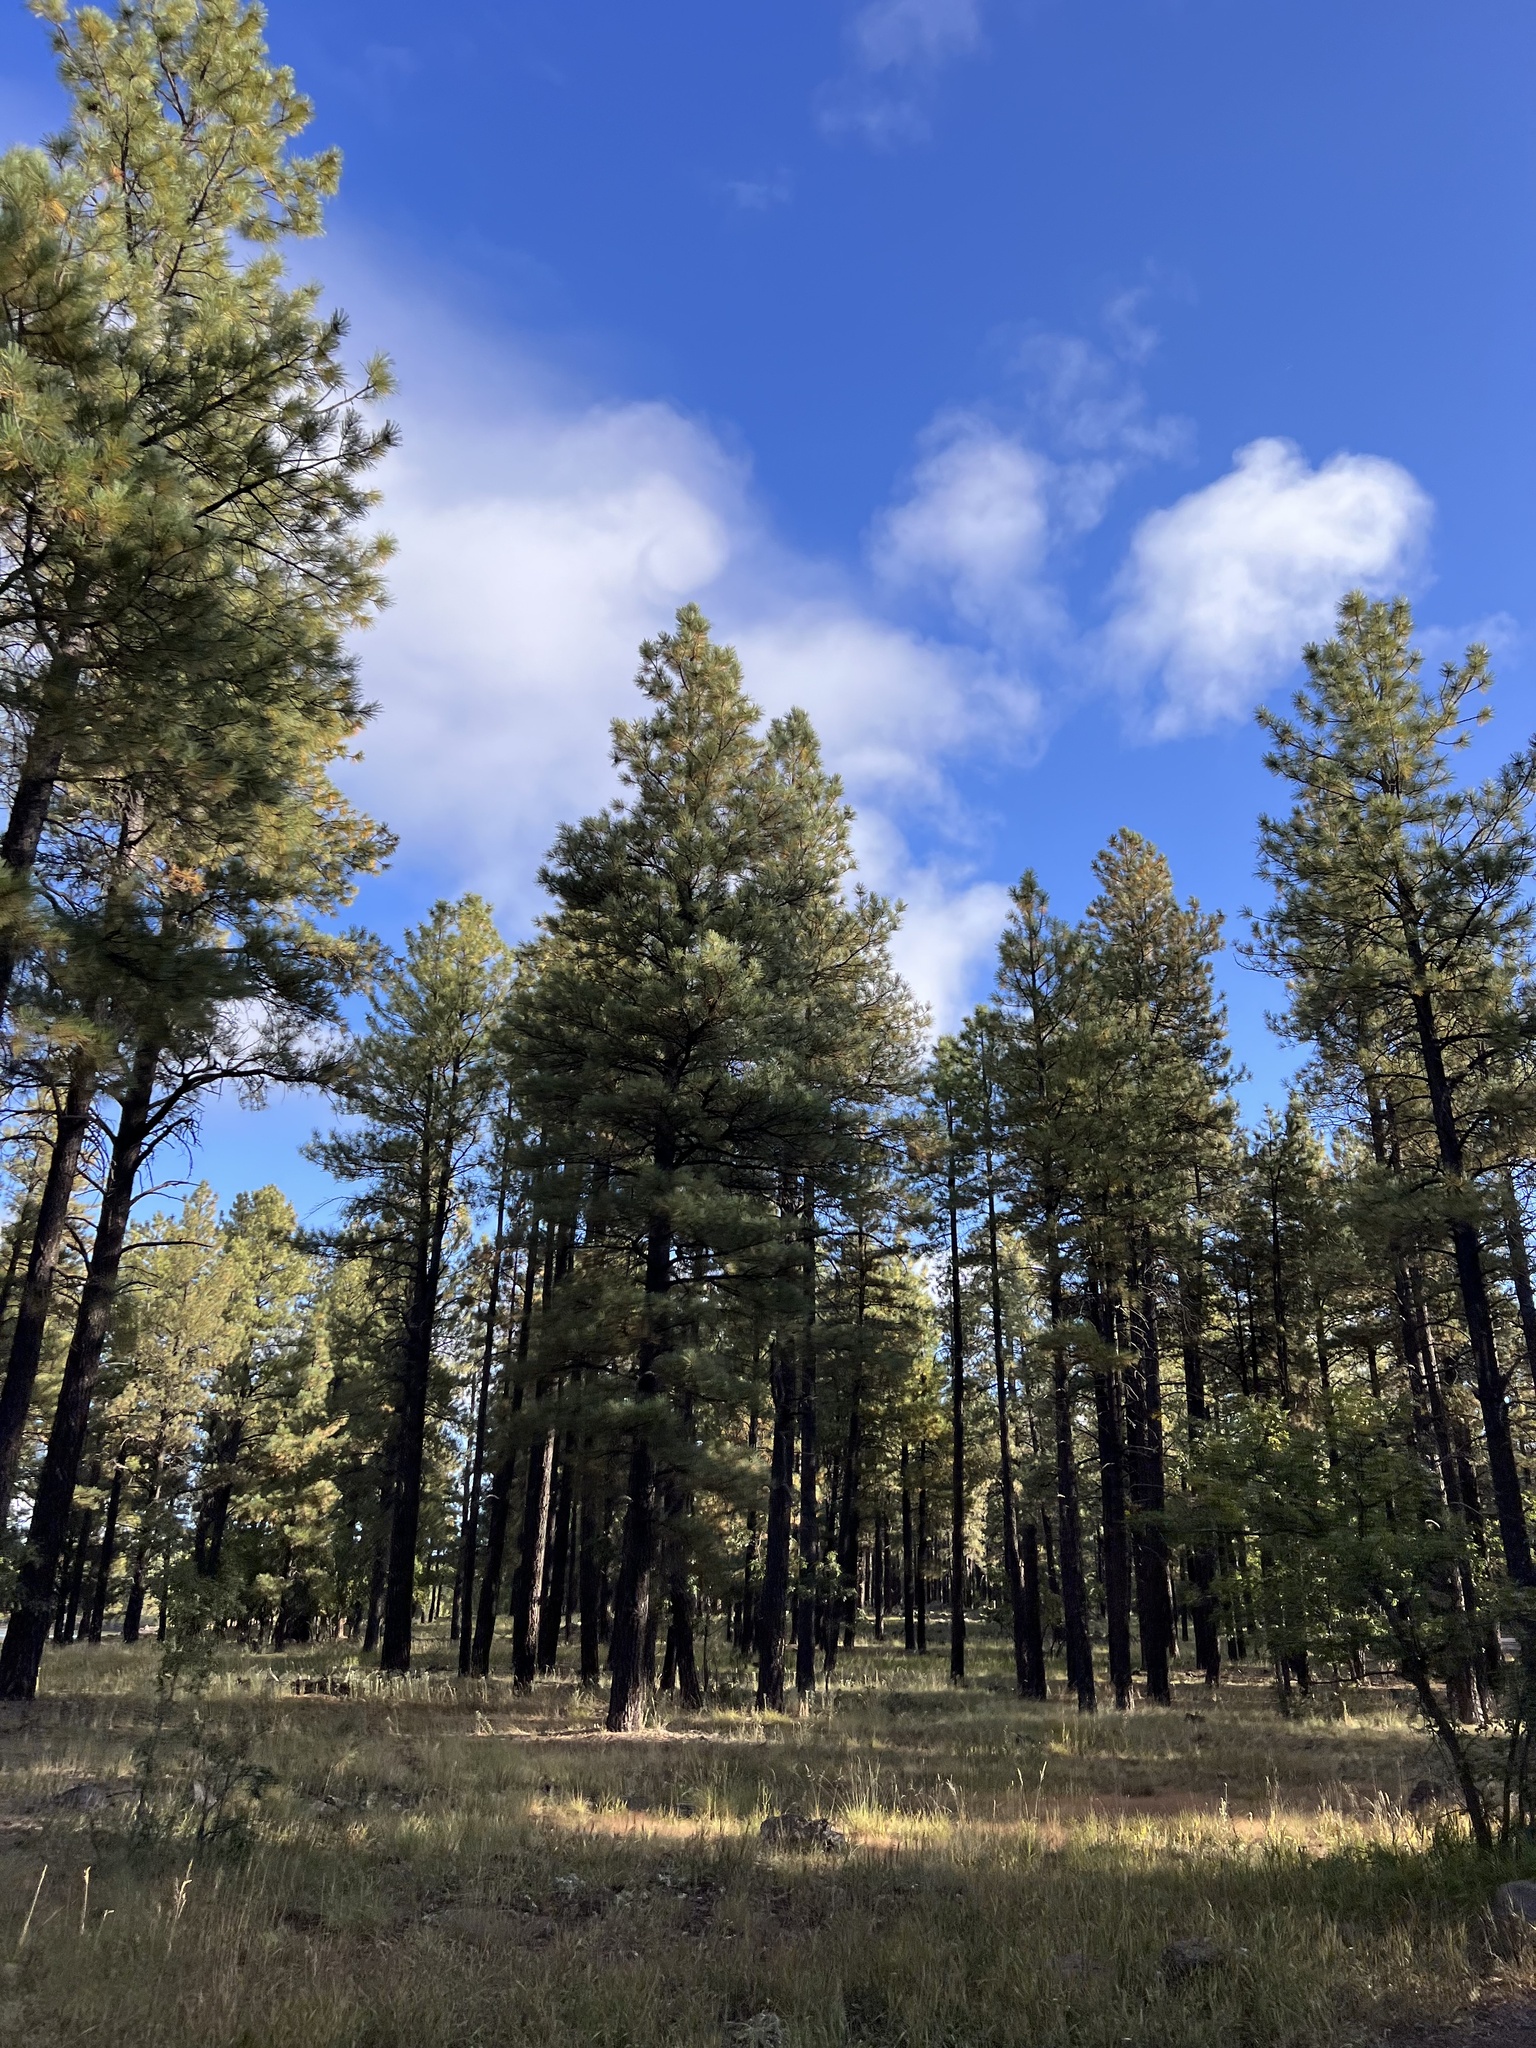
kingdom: Plantae
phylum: Tracheophyta
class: Pinopsida
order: Pinales
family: Pinaceae
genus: Pinus
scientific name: Pinus ponderosa
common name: Western yellow-pine
